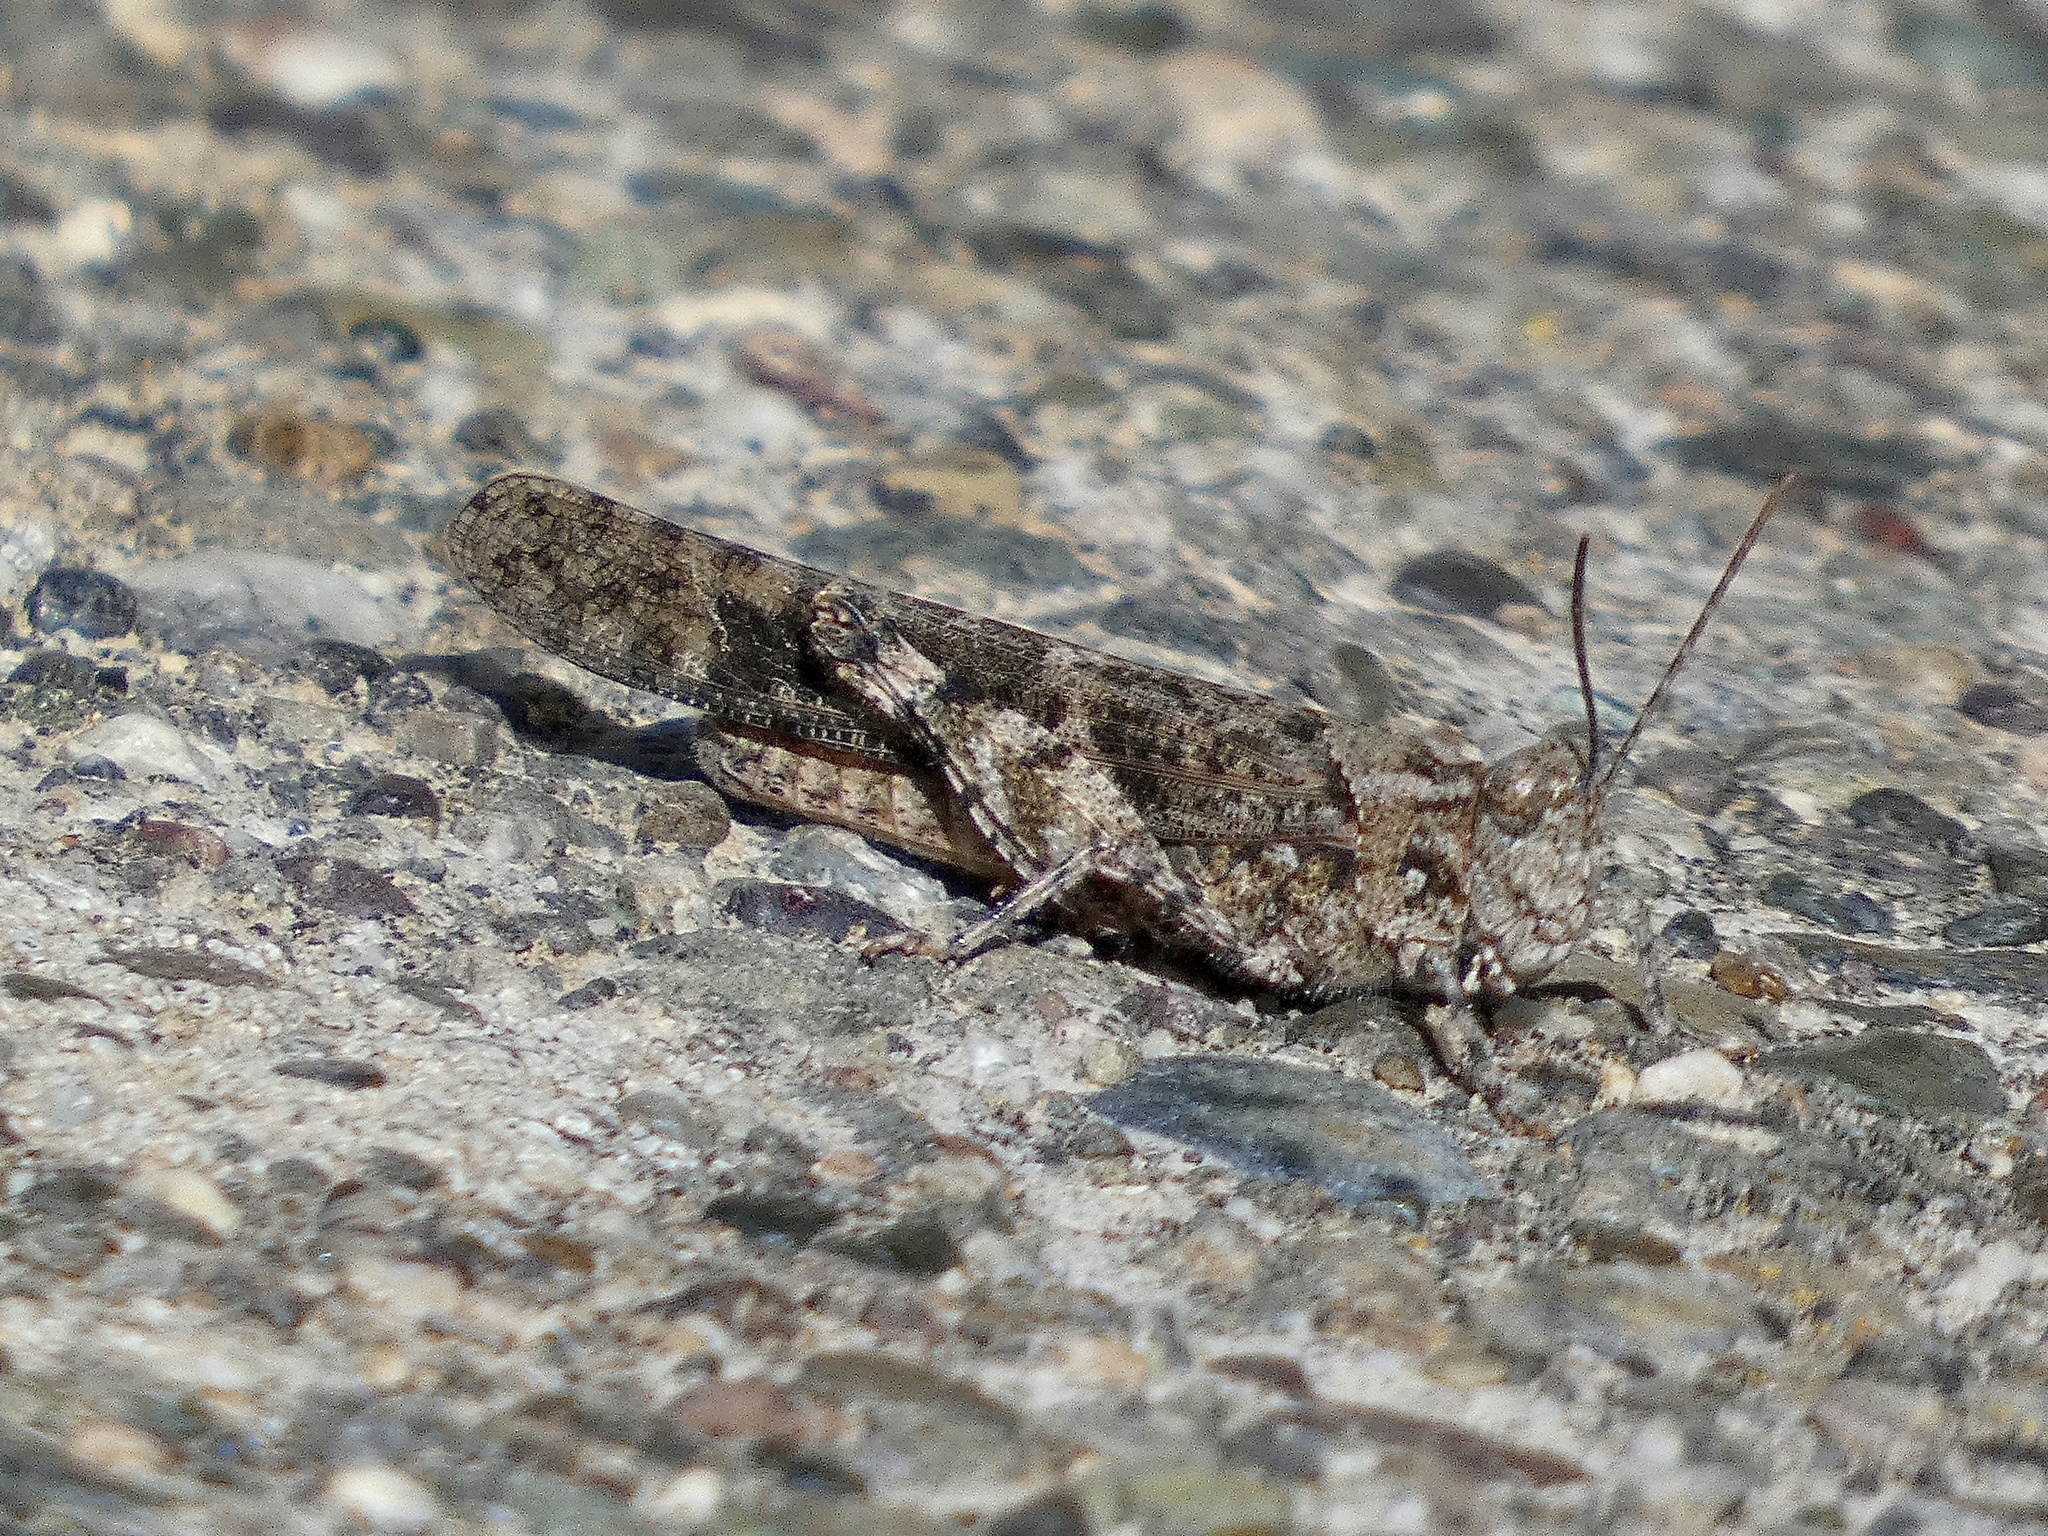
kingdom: Animalia
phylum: Arthropoda
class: Insecta
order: Orthoptera
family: Acrididae
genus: Trimerotropis
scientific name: Trimerotropis pallidipennis
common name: Pallid-winged grasshopper
